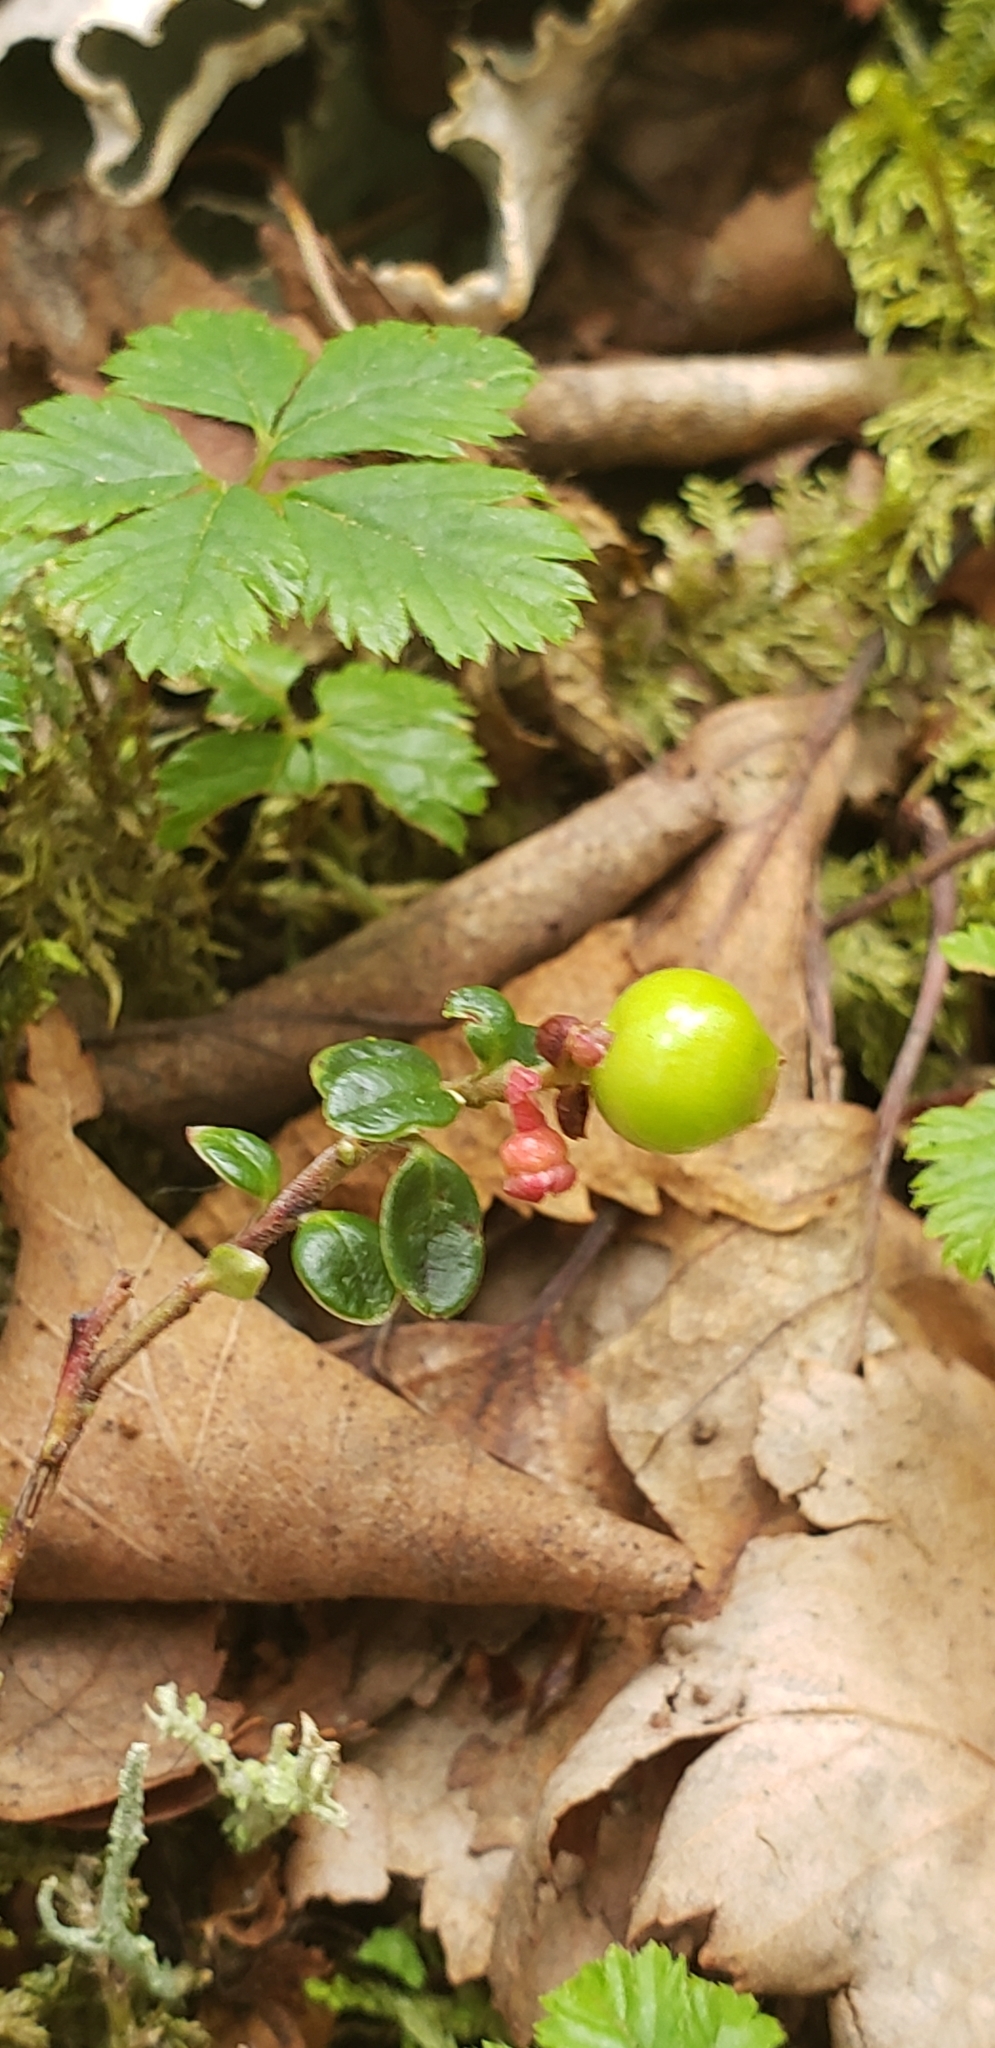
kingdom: Plantae
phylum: Tracheophyta
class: Magnoliopsida
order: Ericales
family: Ericaceae
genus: Vaccinium
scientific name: Vaccinium vitis-idaea
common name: Cowberry
